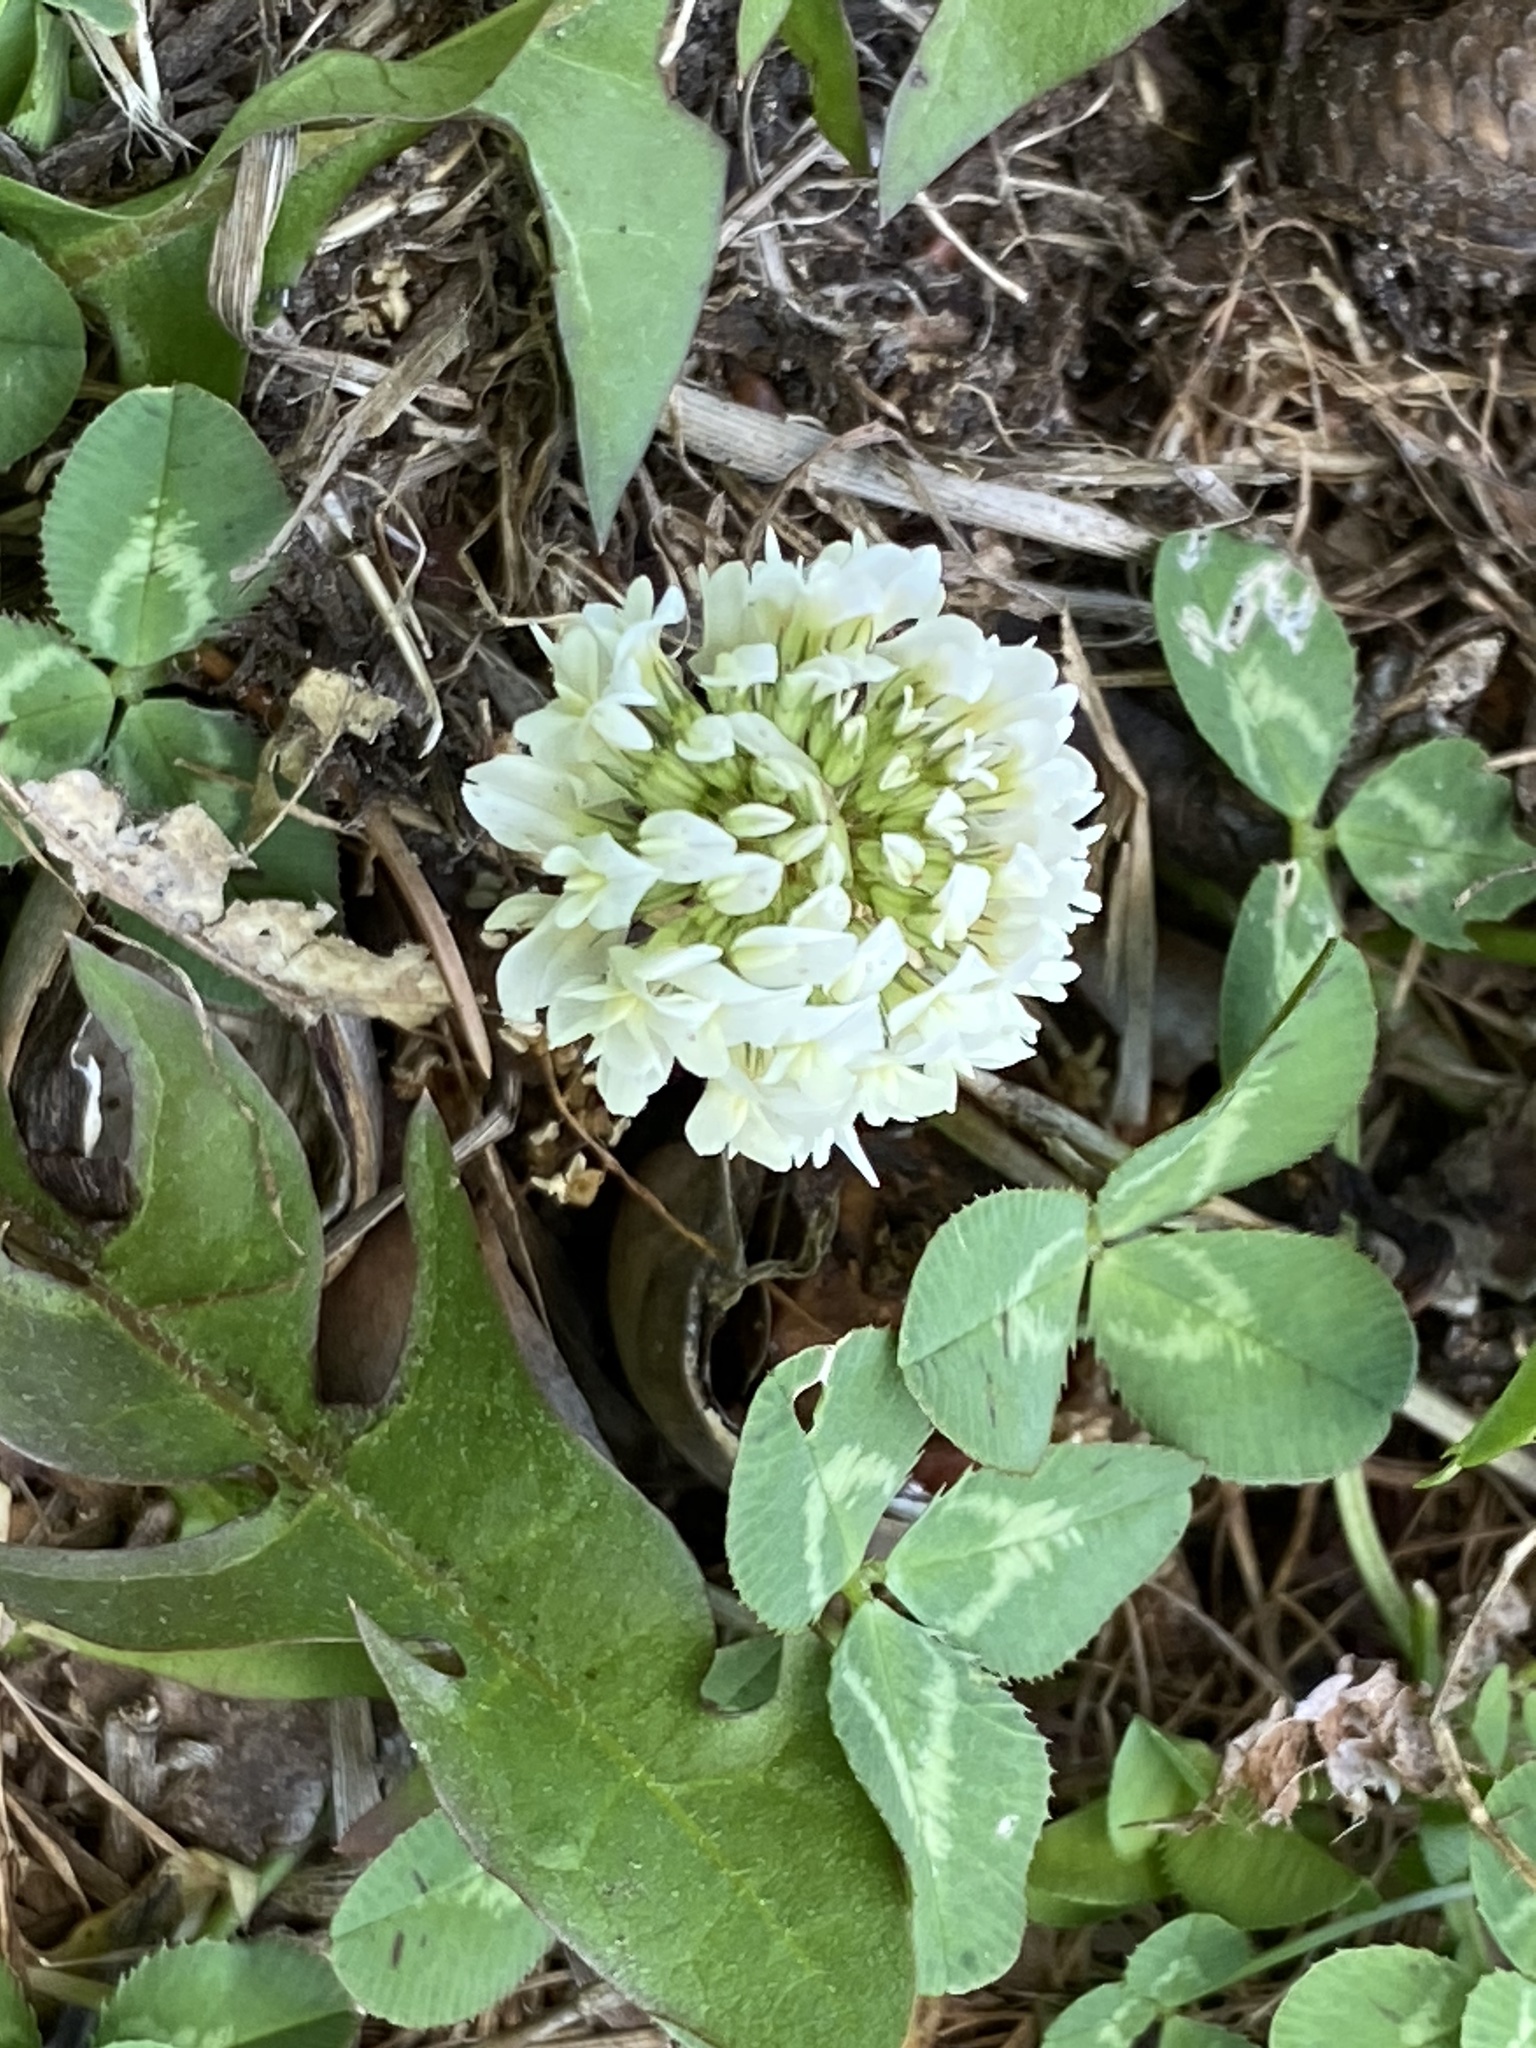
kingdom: Plantae
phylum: Tracheophyta
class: Magnoliopsida
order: Fabales
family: Fabaceae
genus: Trifolium
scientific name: Trifolium repens
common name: White clover
